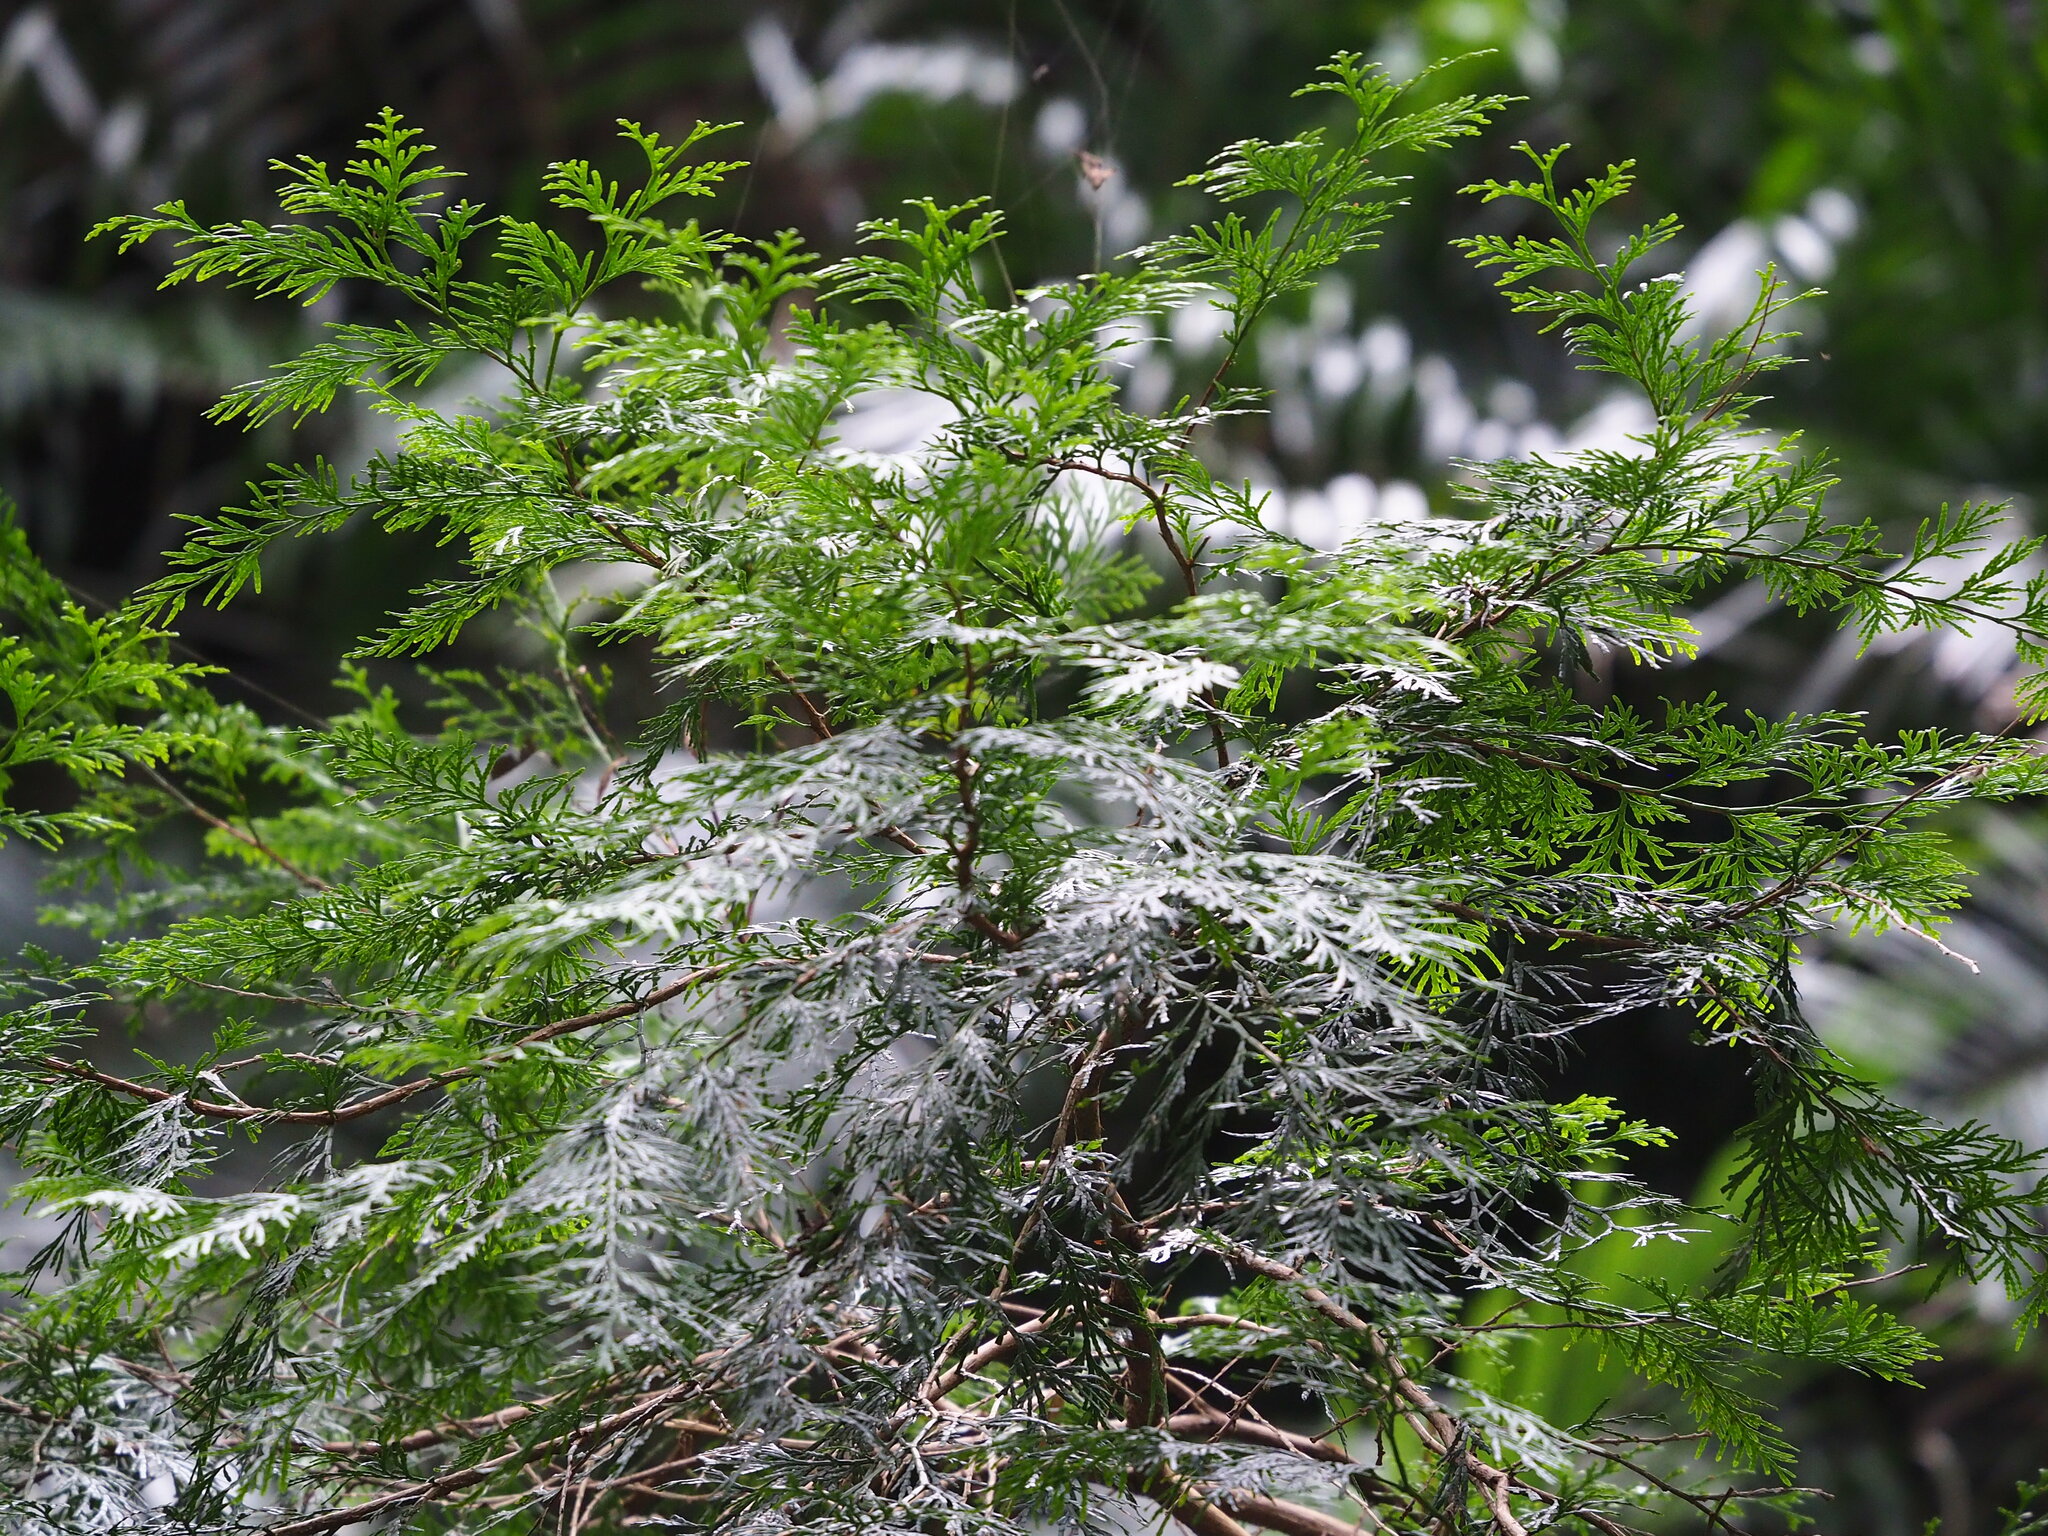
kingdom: Plantae
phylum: Tracheophyta
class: Pinopsida
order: Pinales
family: Cupressaceae
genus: Calocedrus
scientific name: Calocedrus formosana
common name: Taiwan incense-cedar
